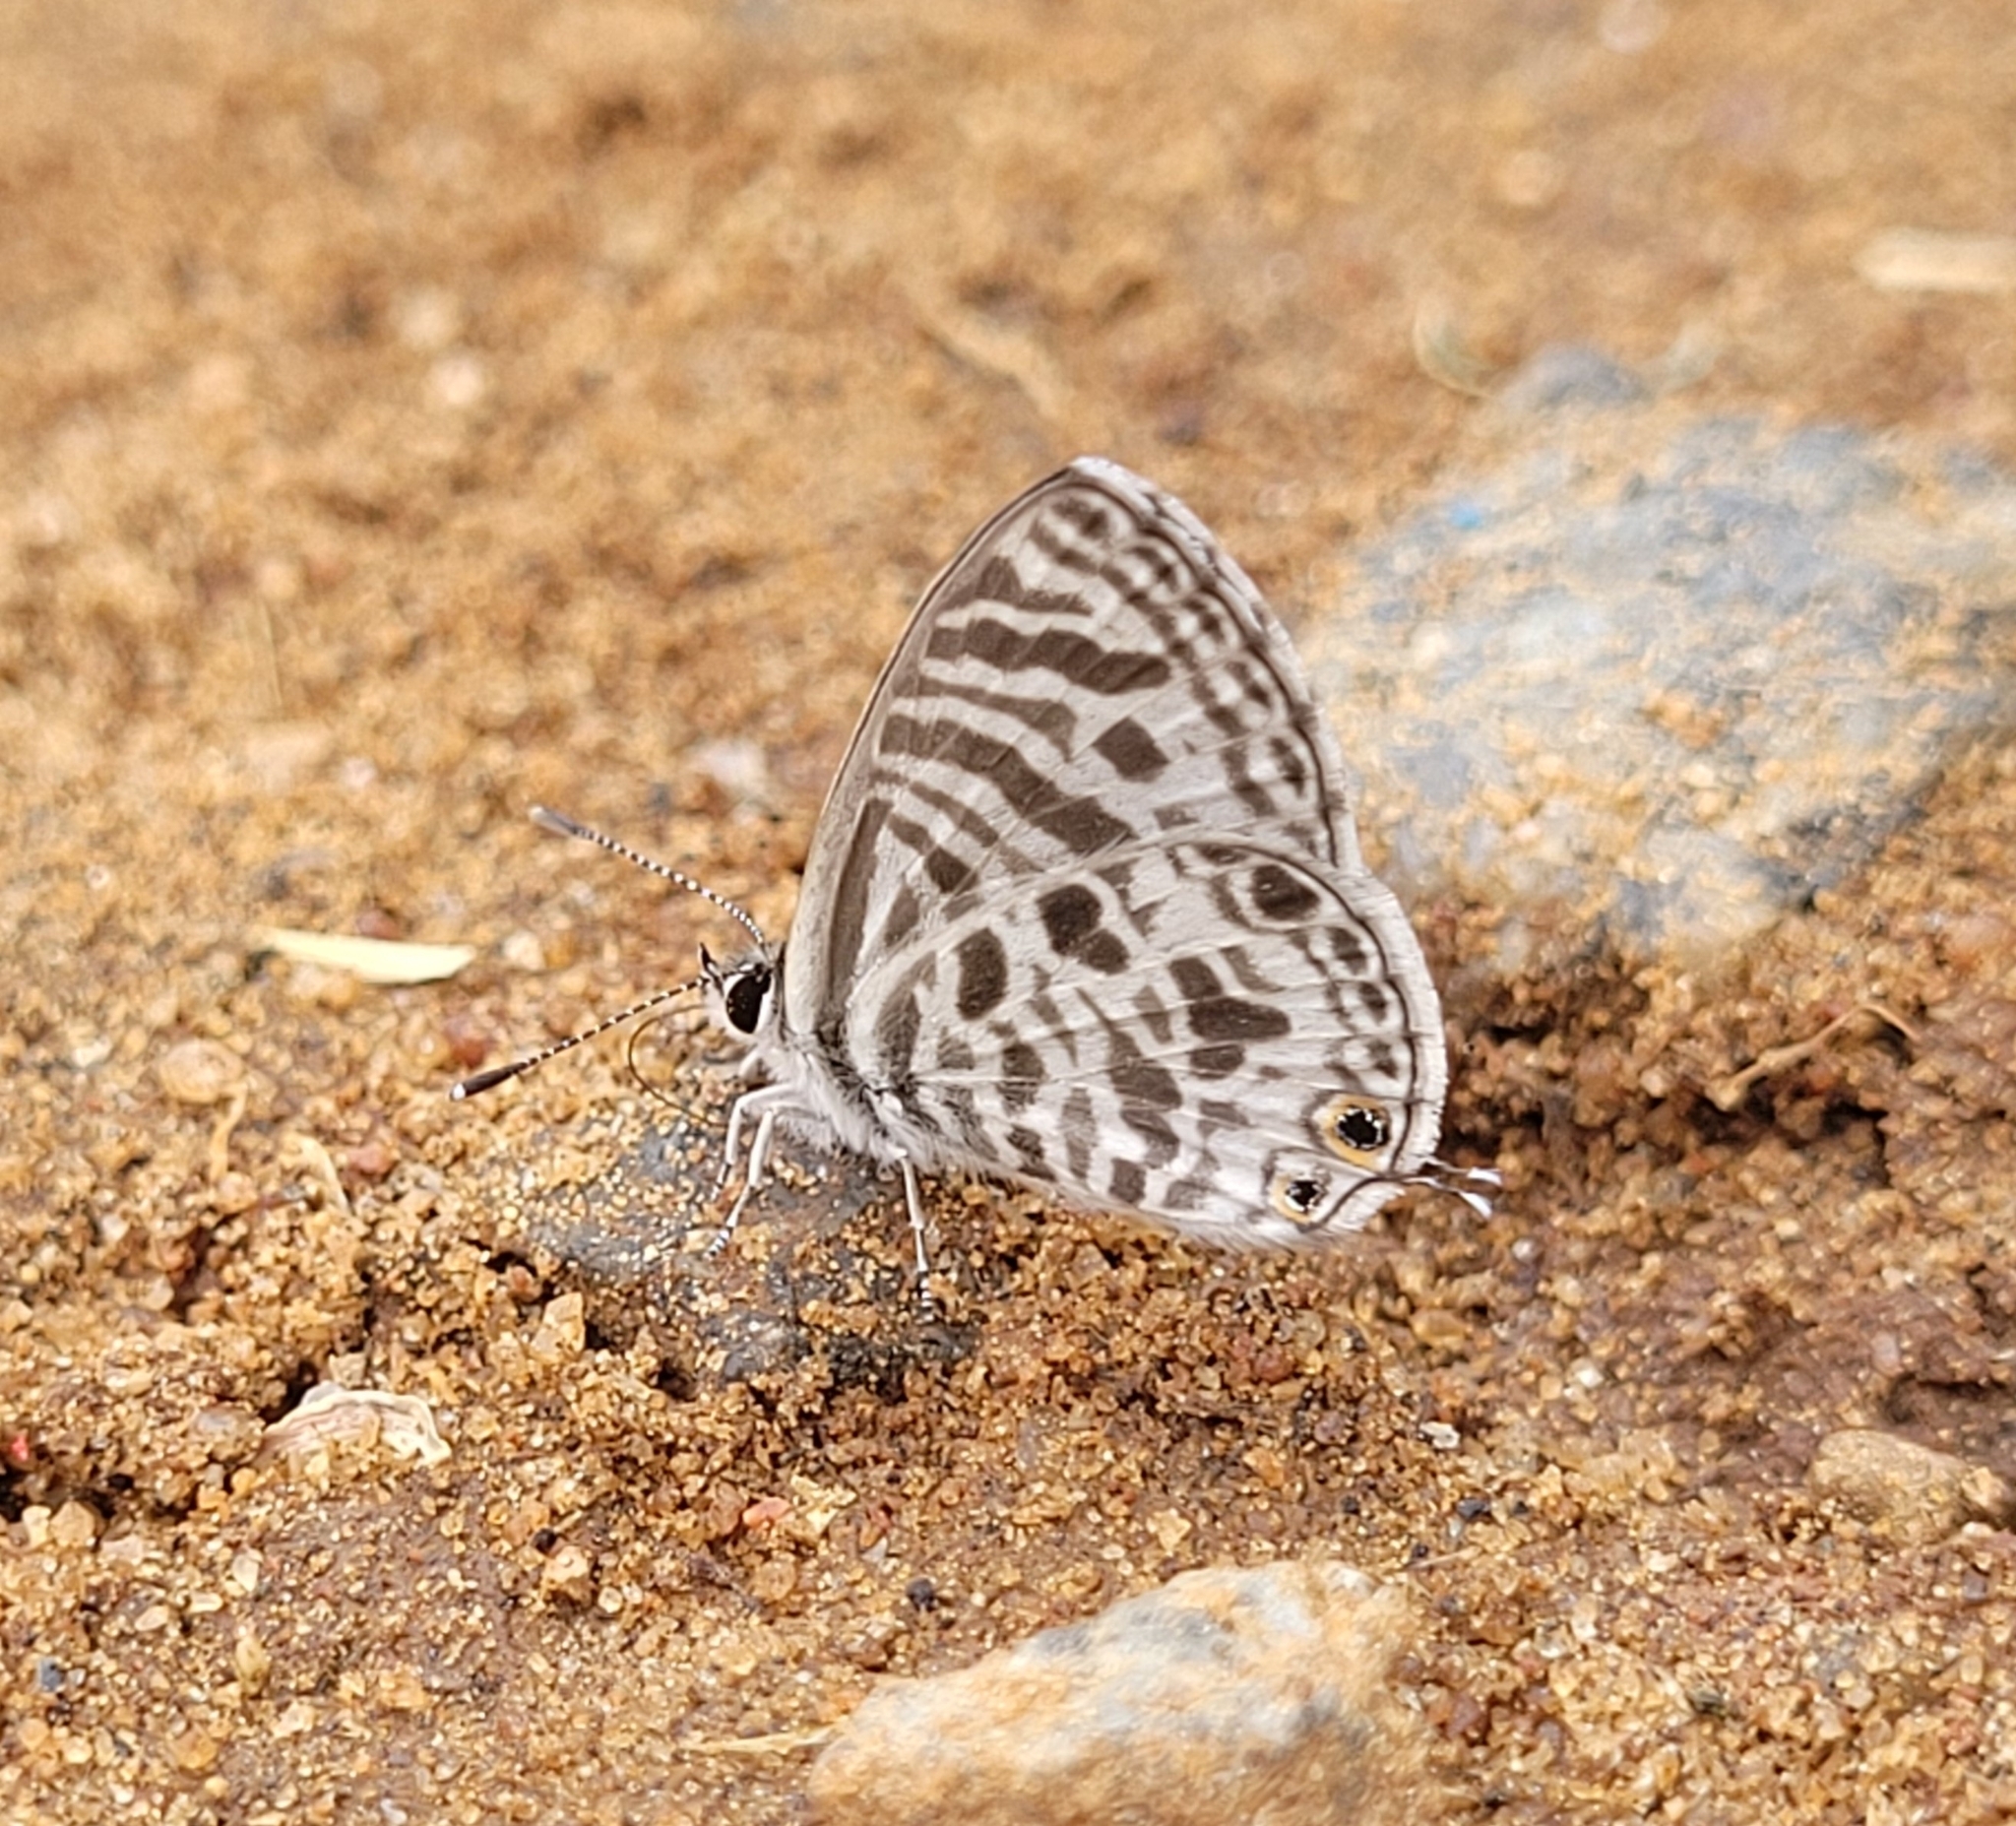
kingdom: Animalia
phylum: Arthropoda
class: Insecta
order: Lepidoptera
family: Lycaenidae
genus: Leptotes
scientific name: Leptotes plinius
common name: Zebra blue
